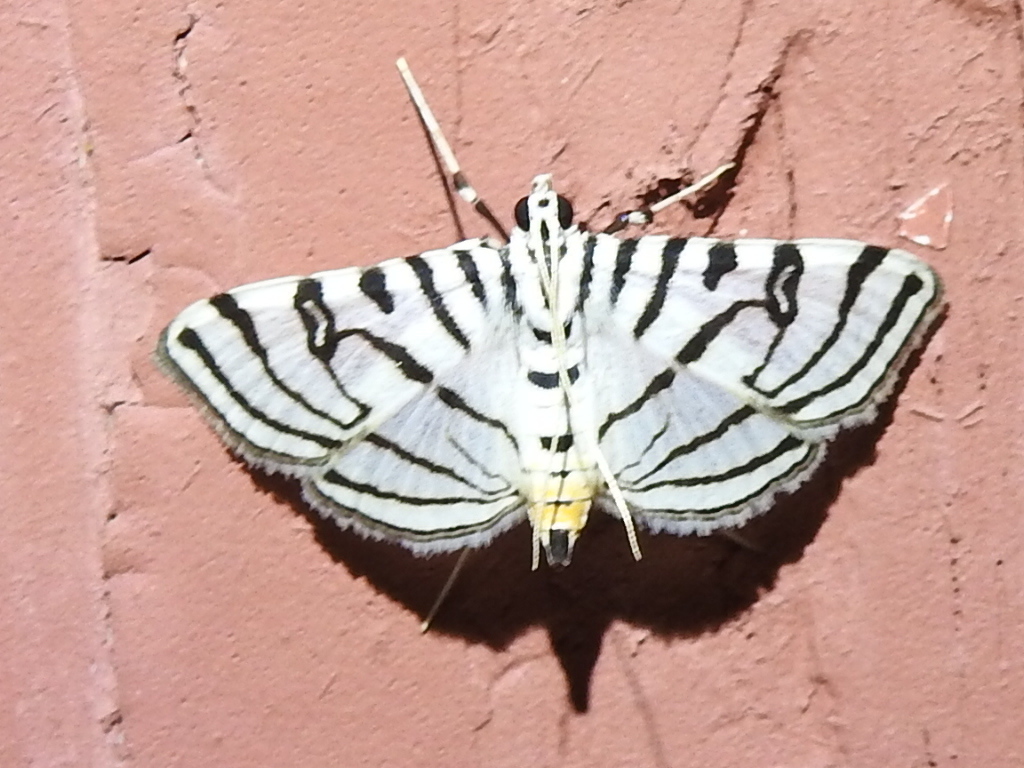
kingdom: Animalia
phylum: Arthropoda
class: Insecta
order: Lepidoptera
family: Crambidae
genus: Conchylodes
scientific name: Conchylodes ovulalis
